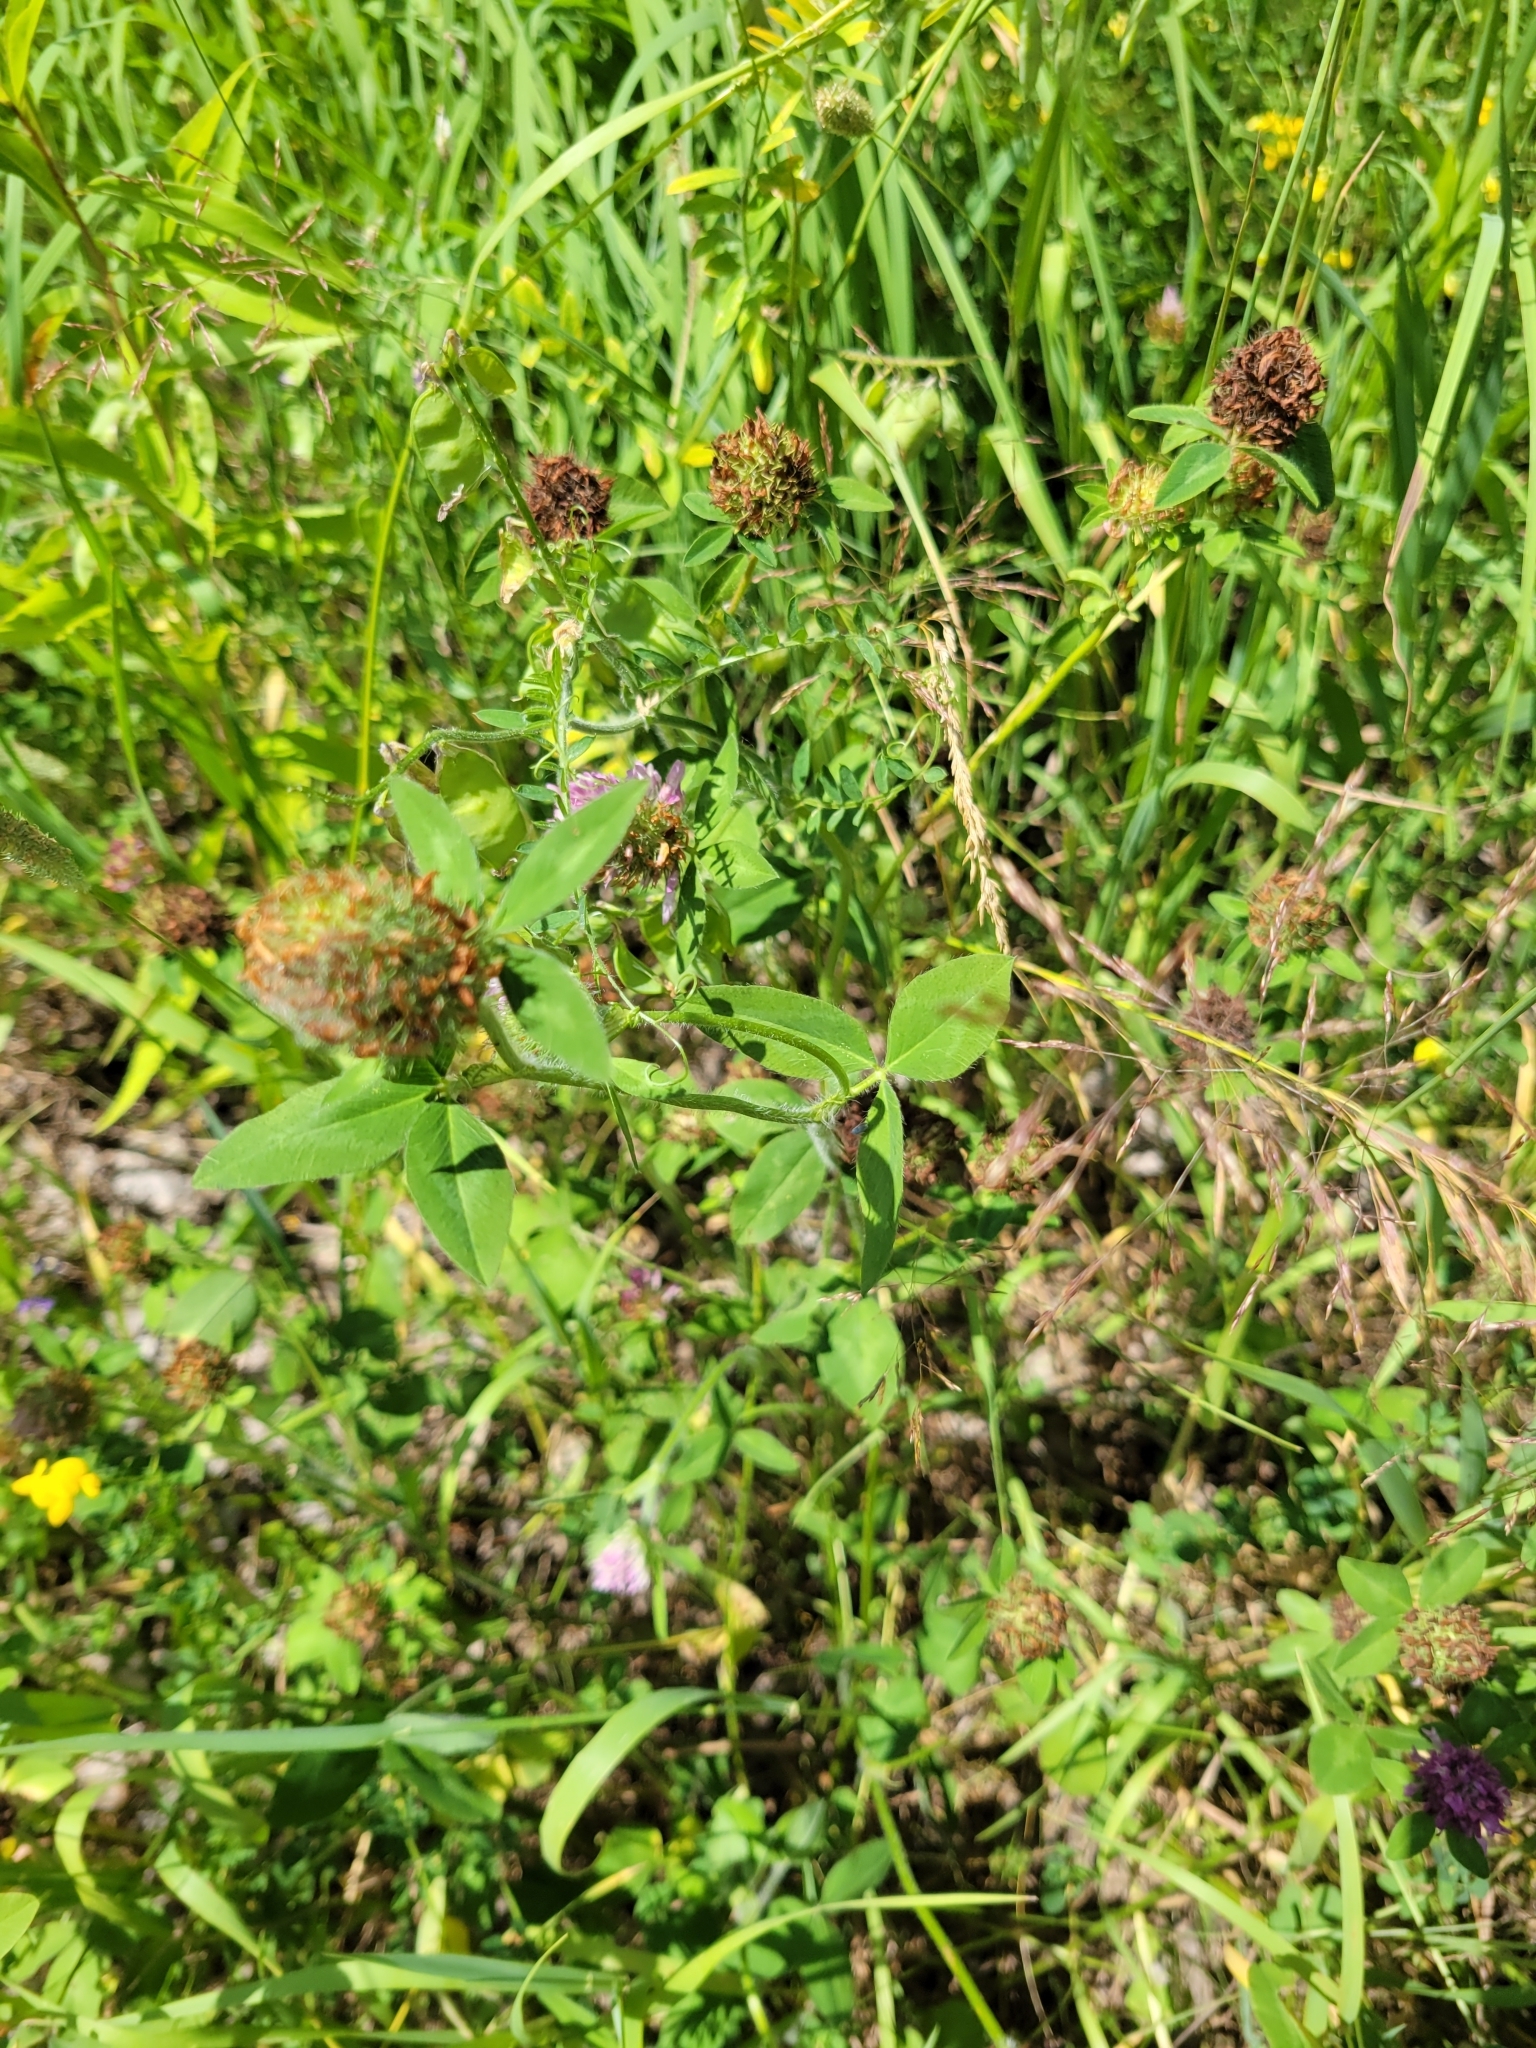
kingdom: Plantae
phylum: Tracheophyta
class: Magnoliopsida
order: Fabales
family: Fabaceae
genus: Trifolium
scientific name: Trifolium pratense
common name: Red clover
